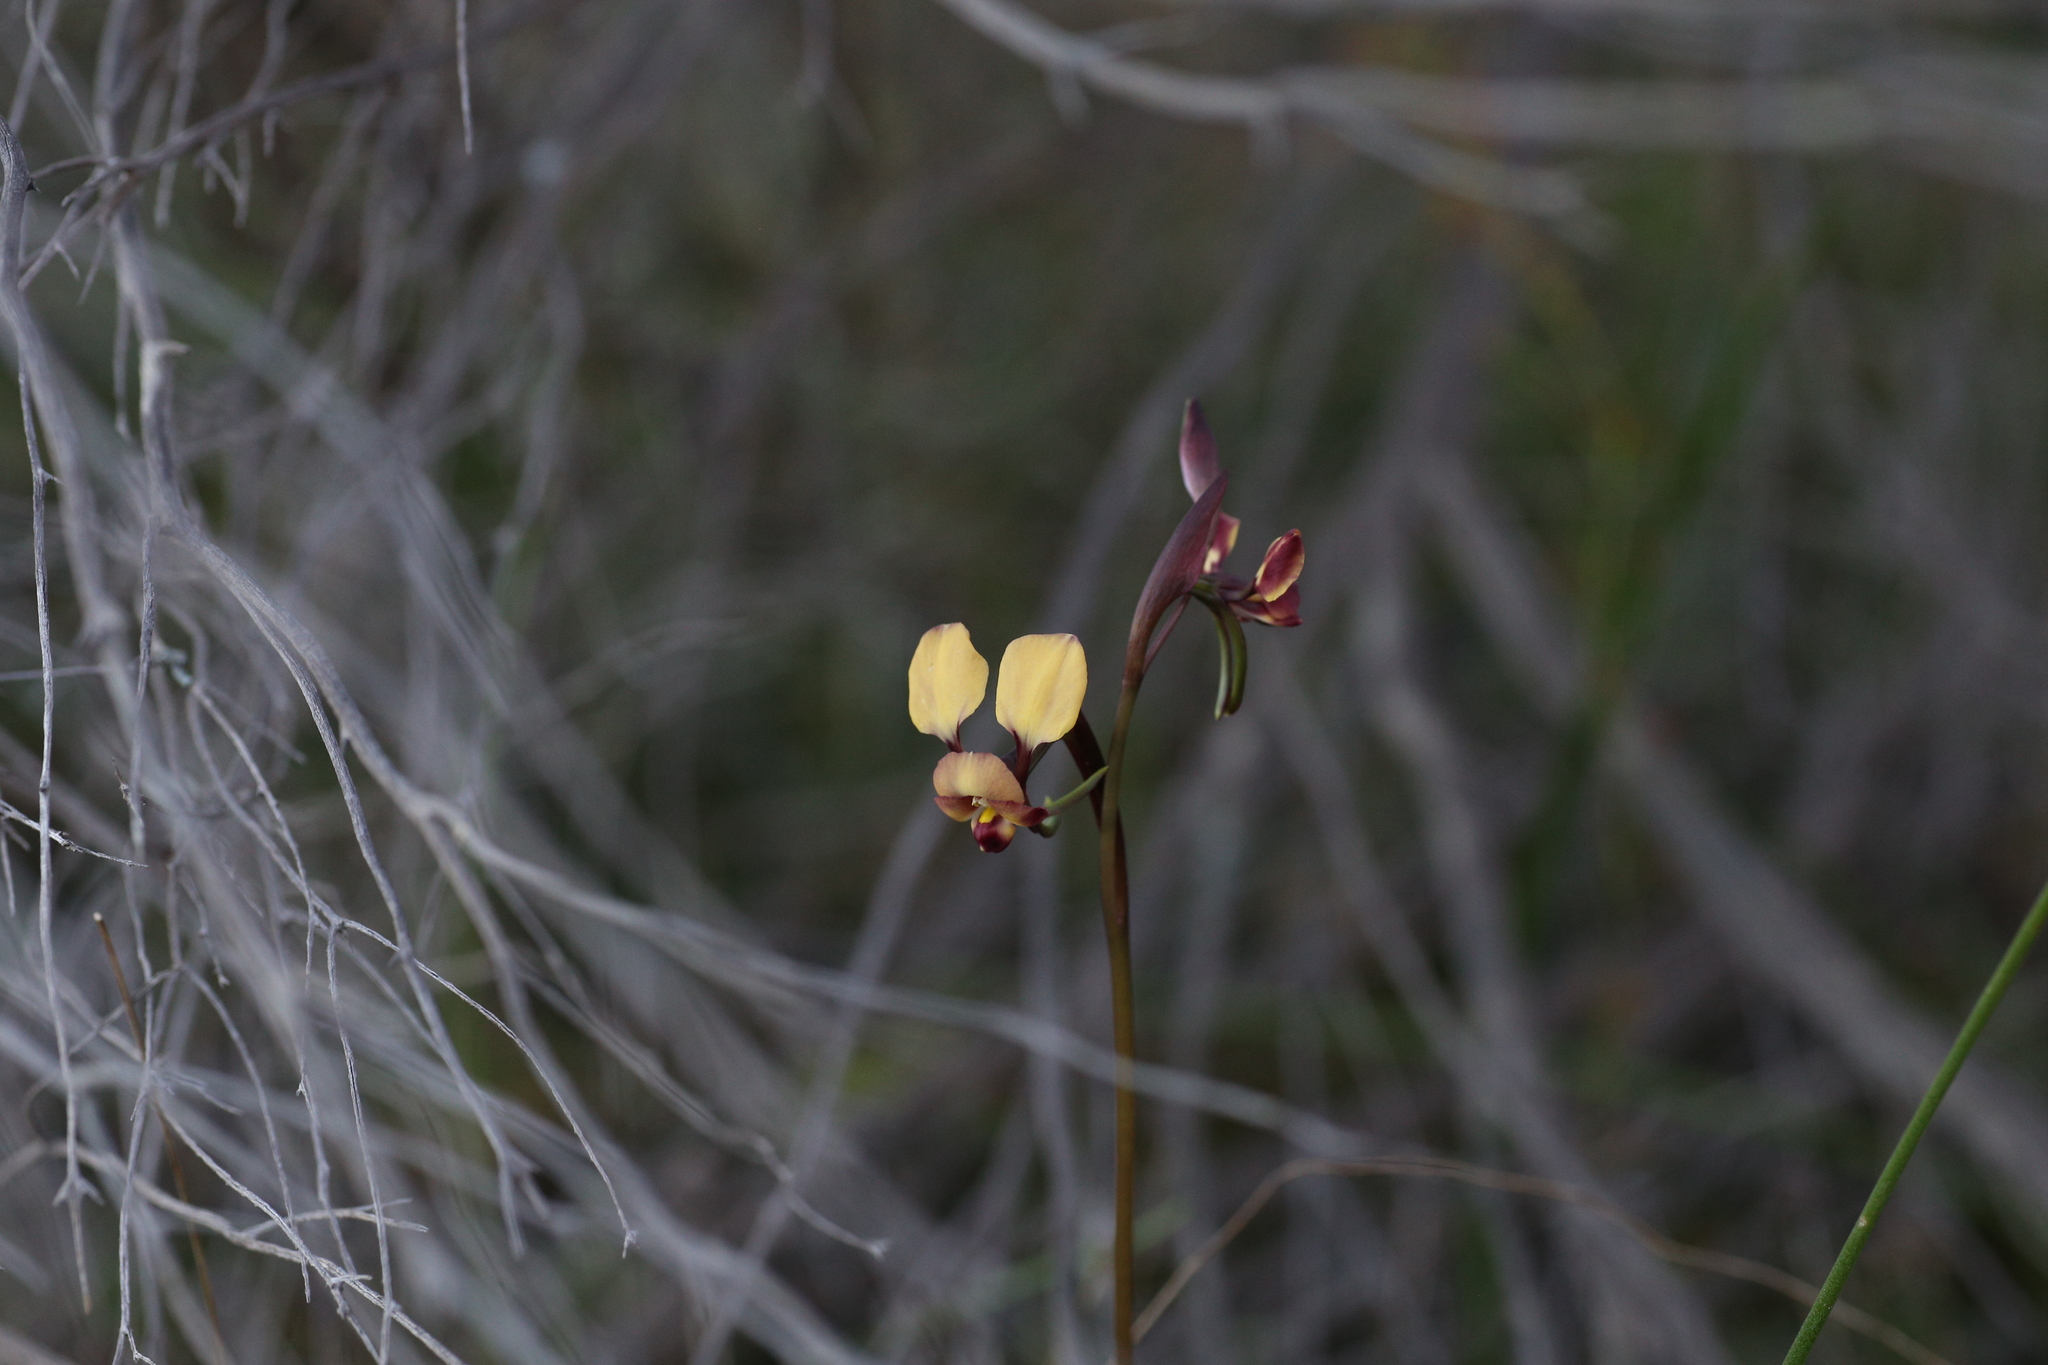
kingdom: Plantae
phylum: Tracheophyta
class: Liliopsida
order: Asparagales
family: Orchidaceae
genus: Diuris
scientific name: Diuris brachyscapa
